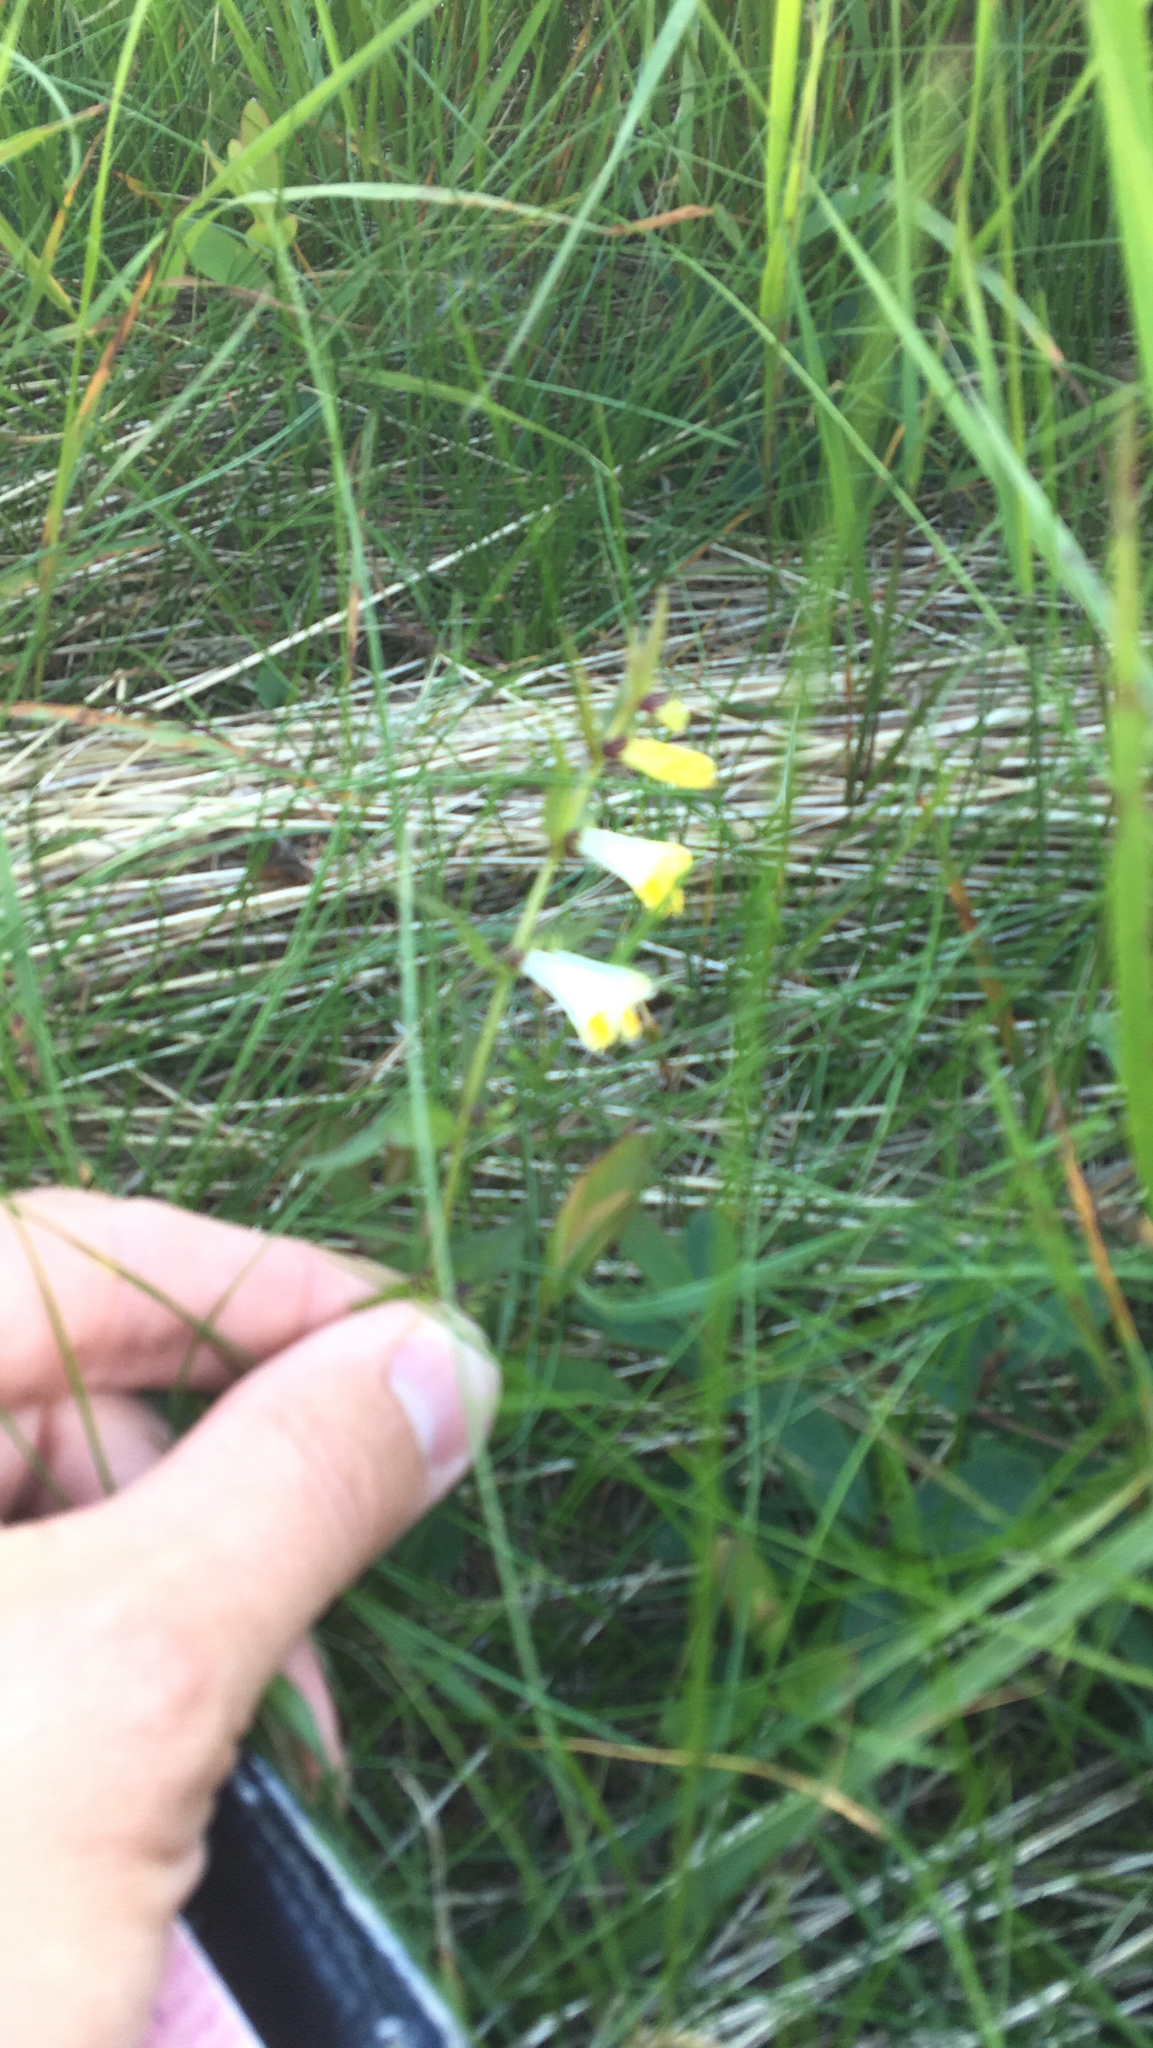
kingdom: Plantae
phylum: Tracheophyta
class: Magnoliopsida
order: Lamiales
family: Orobanchaceae
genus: Melampyrum
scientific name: Melampyrum pratense
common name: Common cow-wheat
